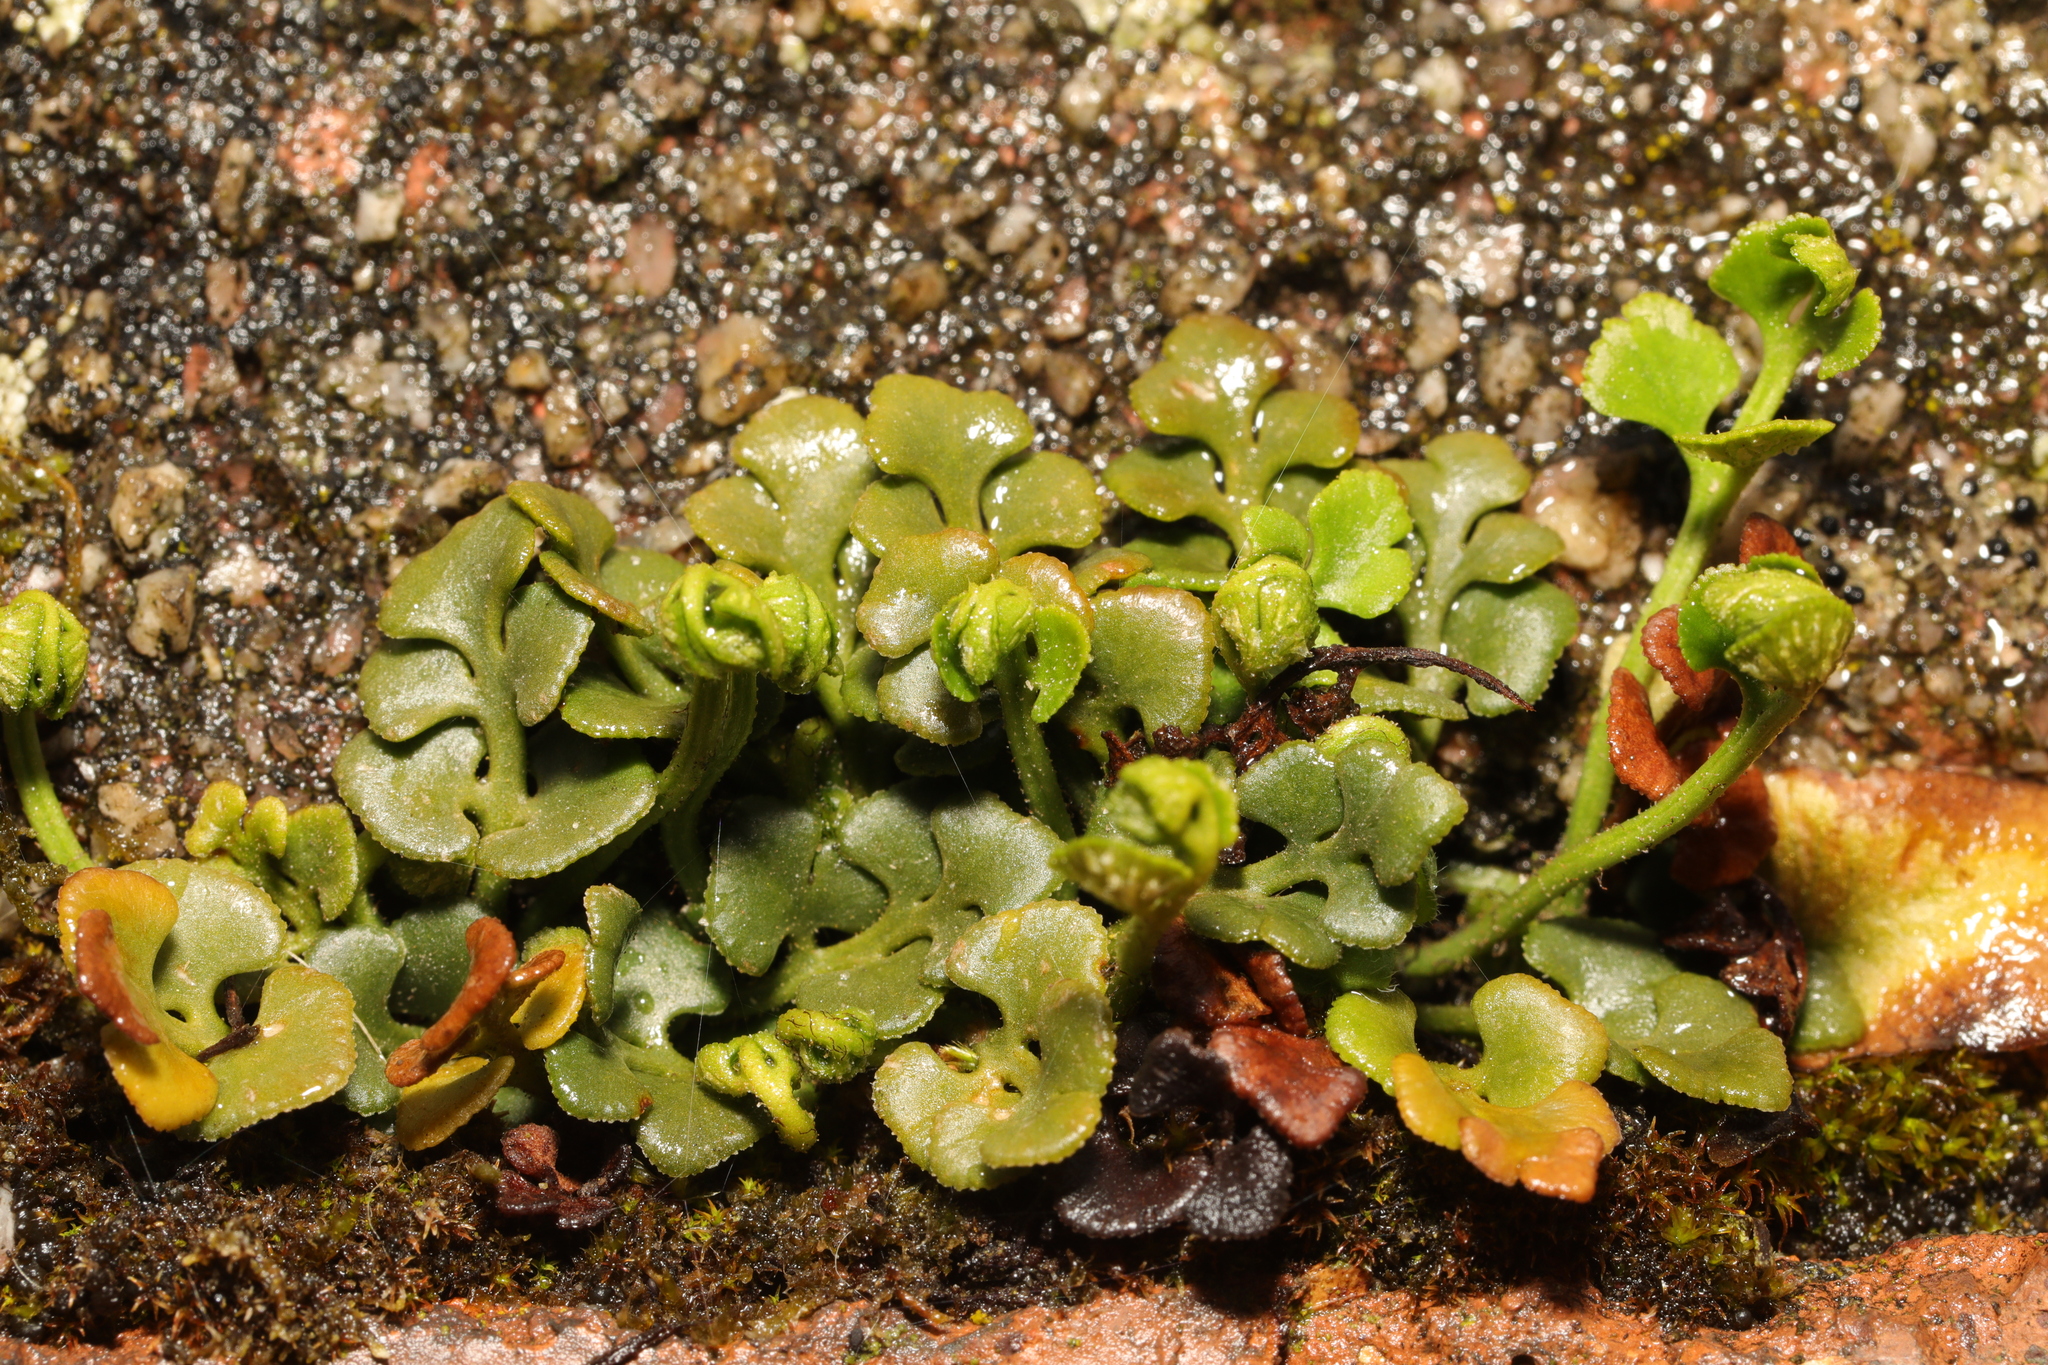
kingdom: Plantae
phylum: Tracheophyta
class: Polypodiopsida
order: Polypodiales
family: Aspleniaceae
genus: Asplenium
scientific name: Asplenium ruta-muraria
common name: Wall-rue
